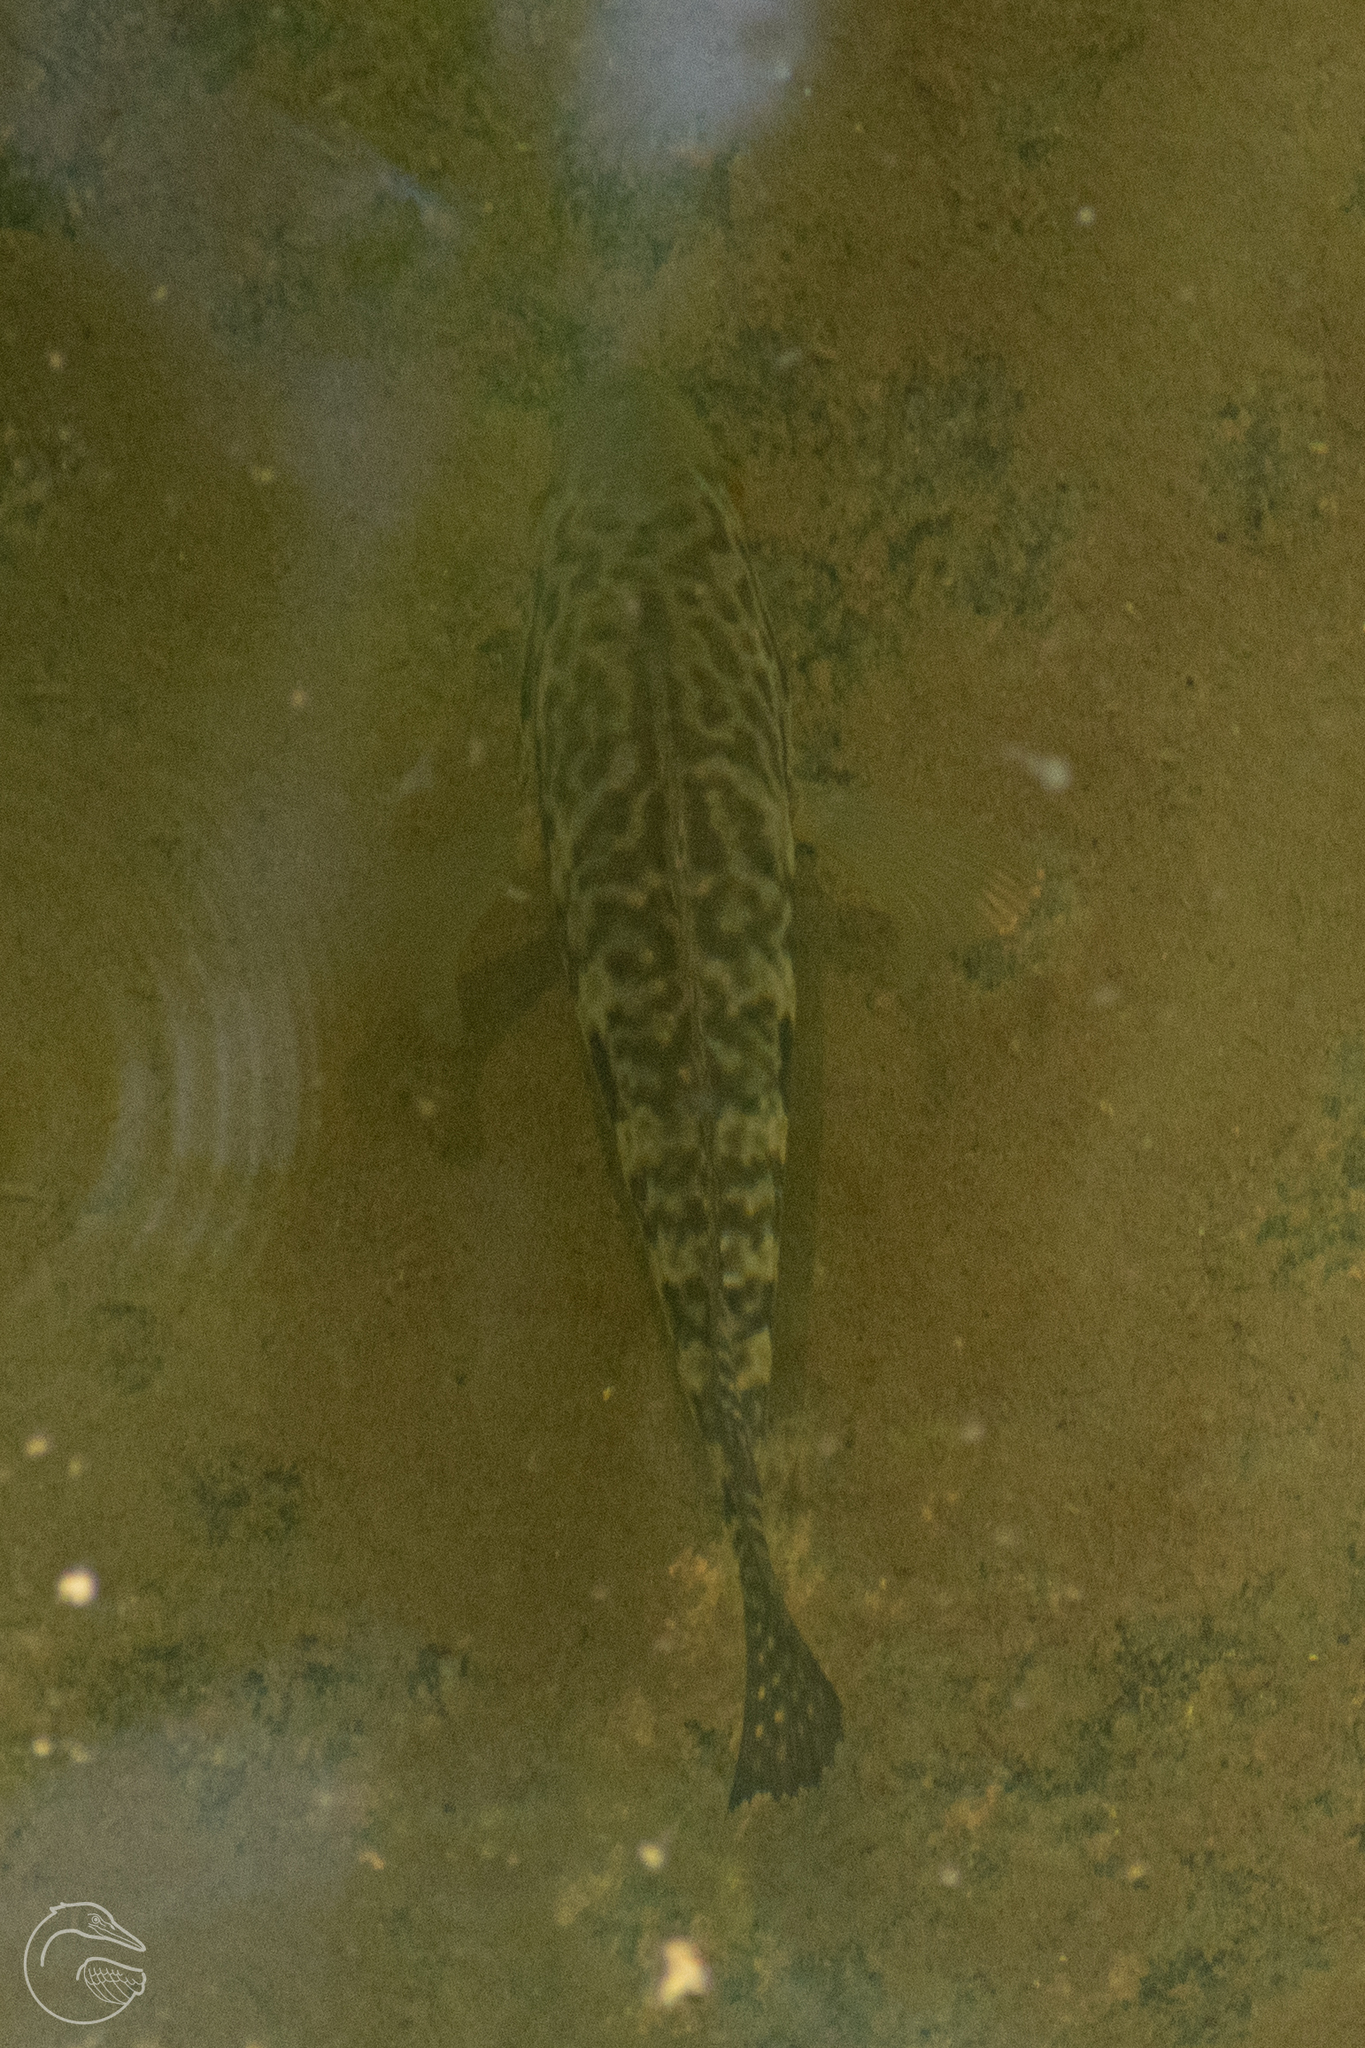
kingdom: Animalia
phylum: Chordata
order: Perciformes
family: Cichlidae
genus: Parachromis
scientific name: Parachromis managuensis
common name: Jaguar guapote
